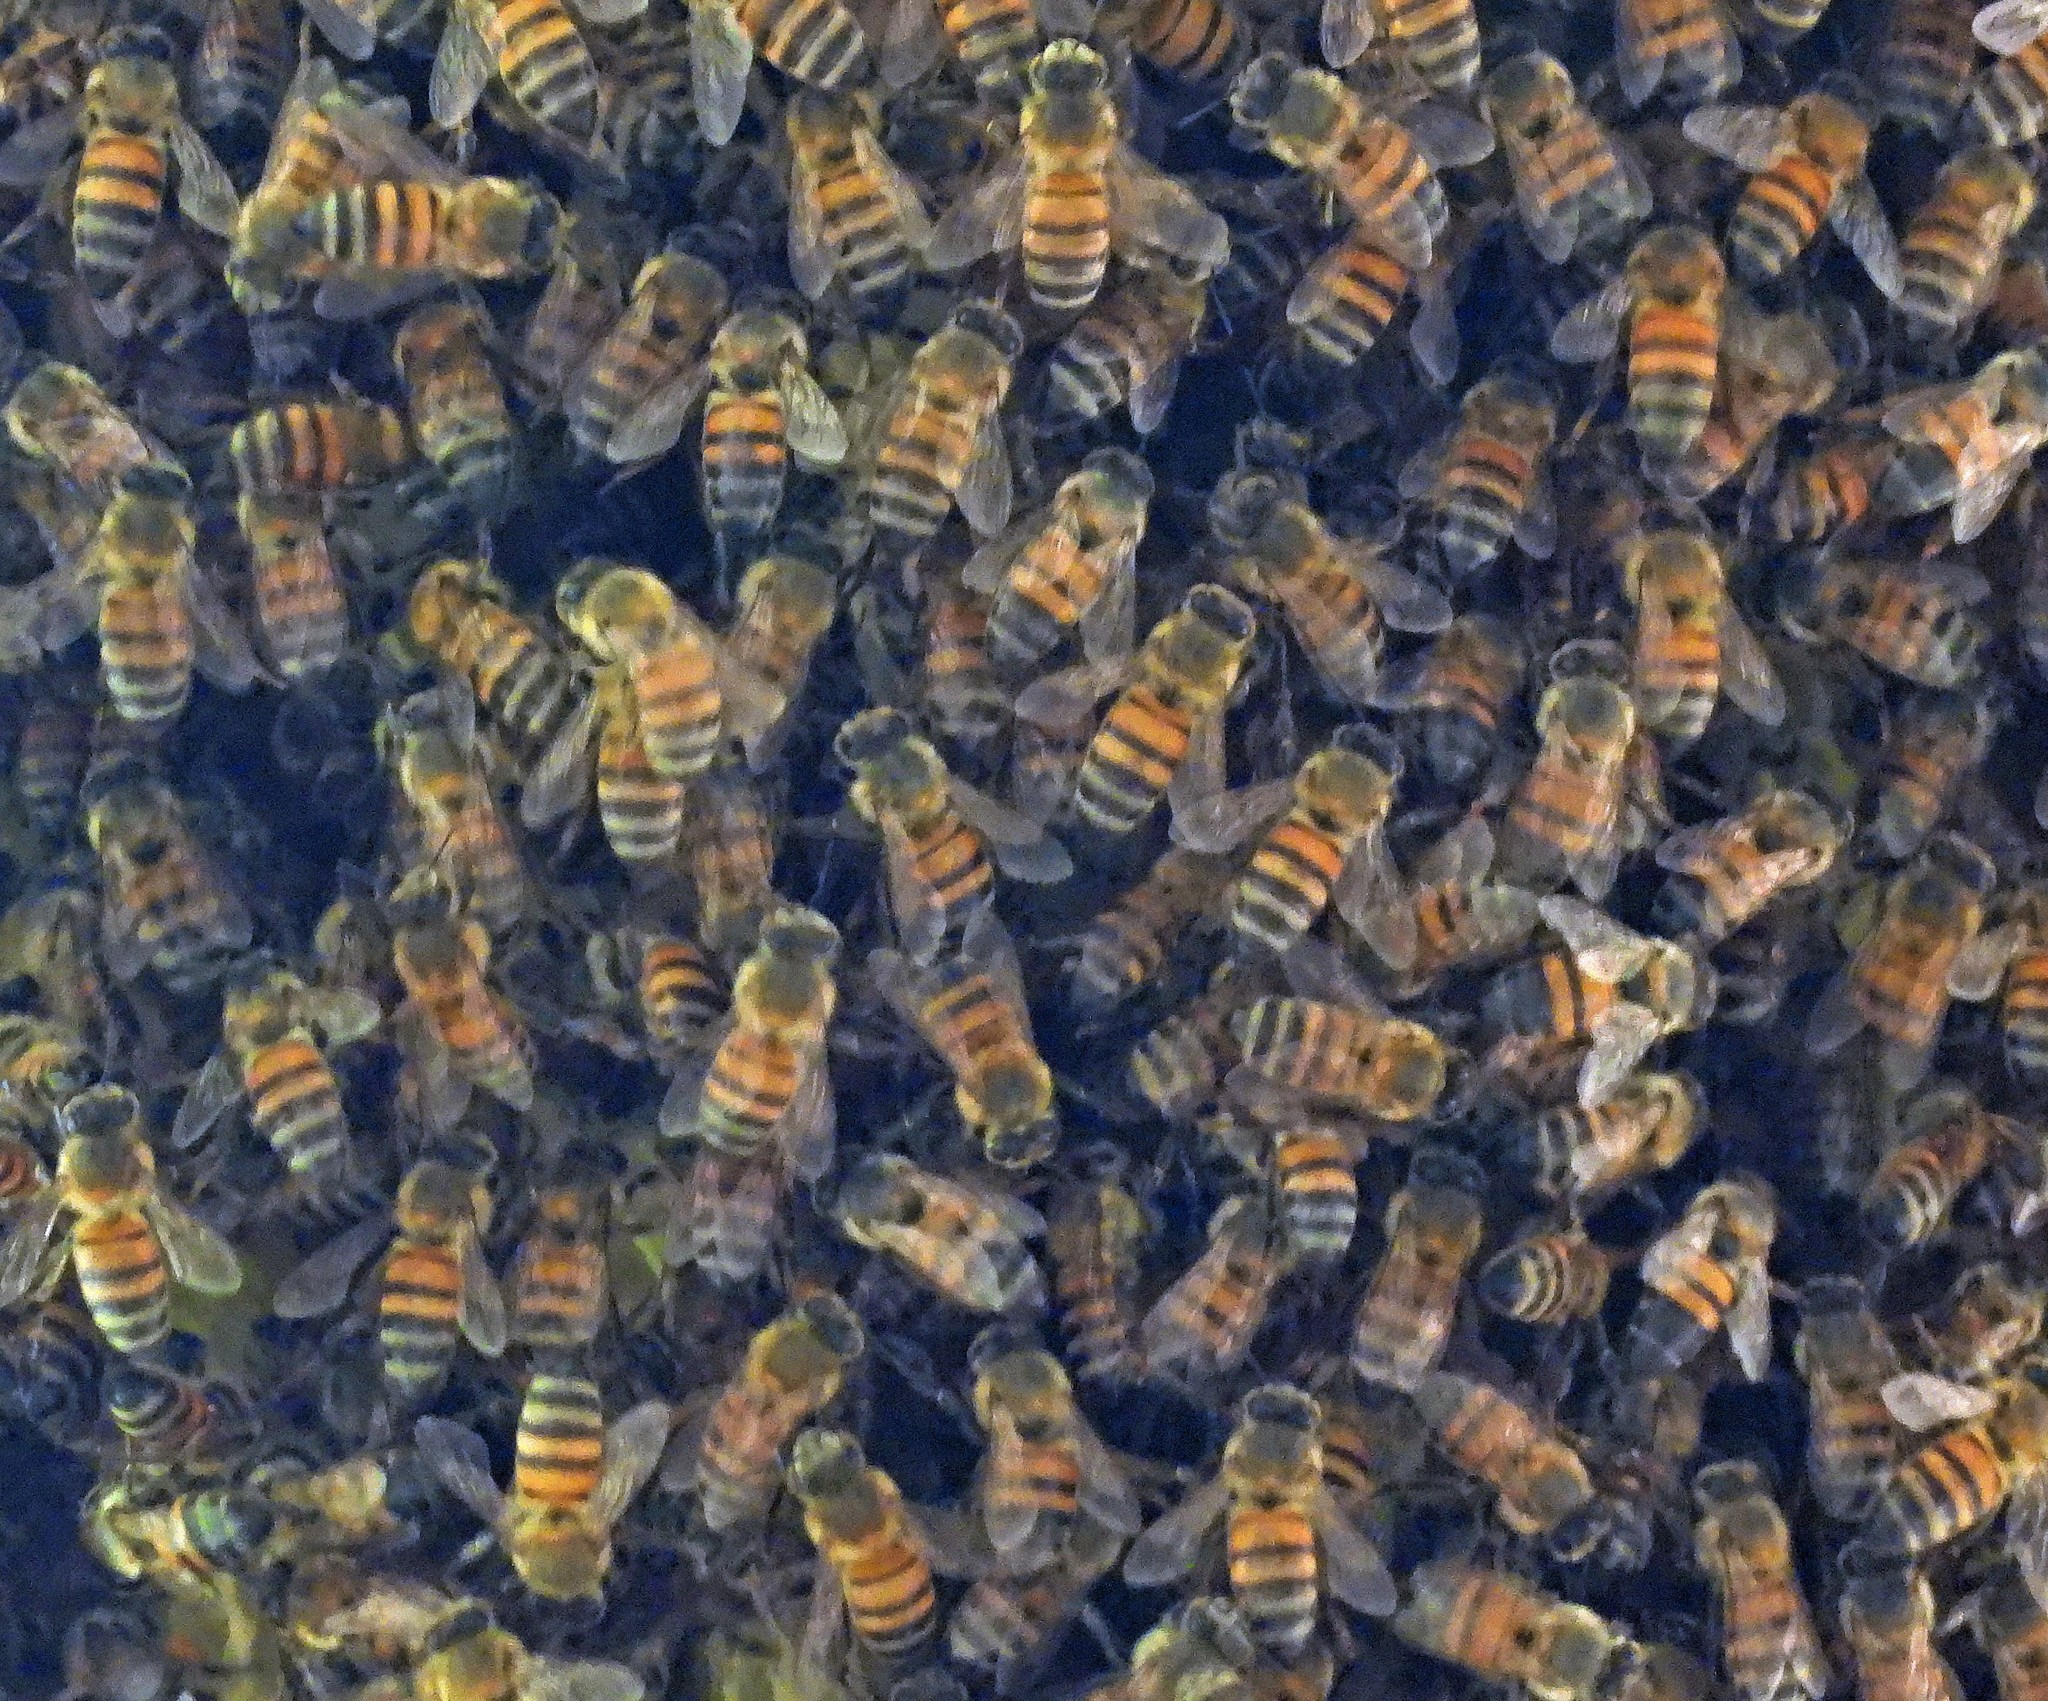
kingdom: Animalia
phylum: Arthropoda
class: Insecta
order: Hymenoptera
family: Apidae
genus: Apis
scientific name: Apis mellifera
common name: Honey bee
